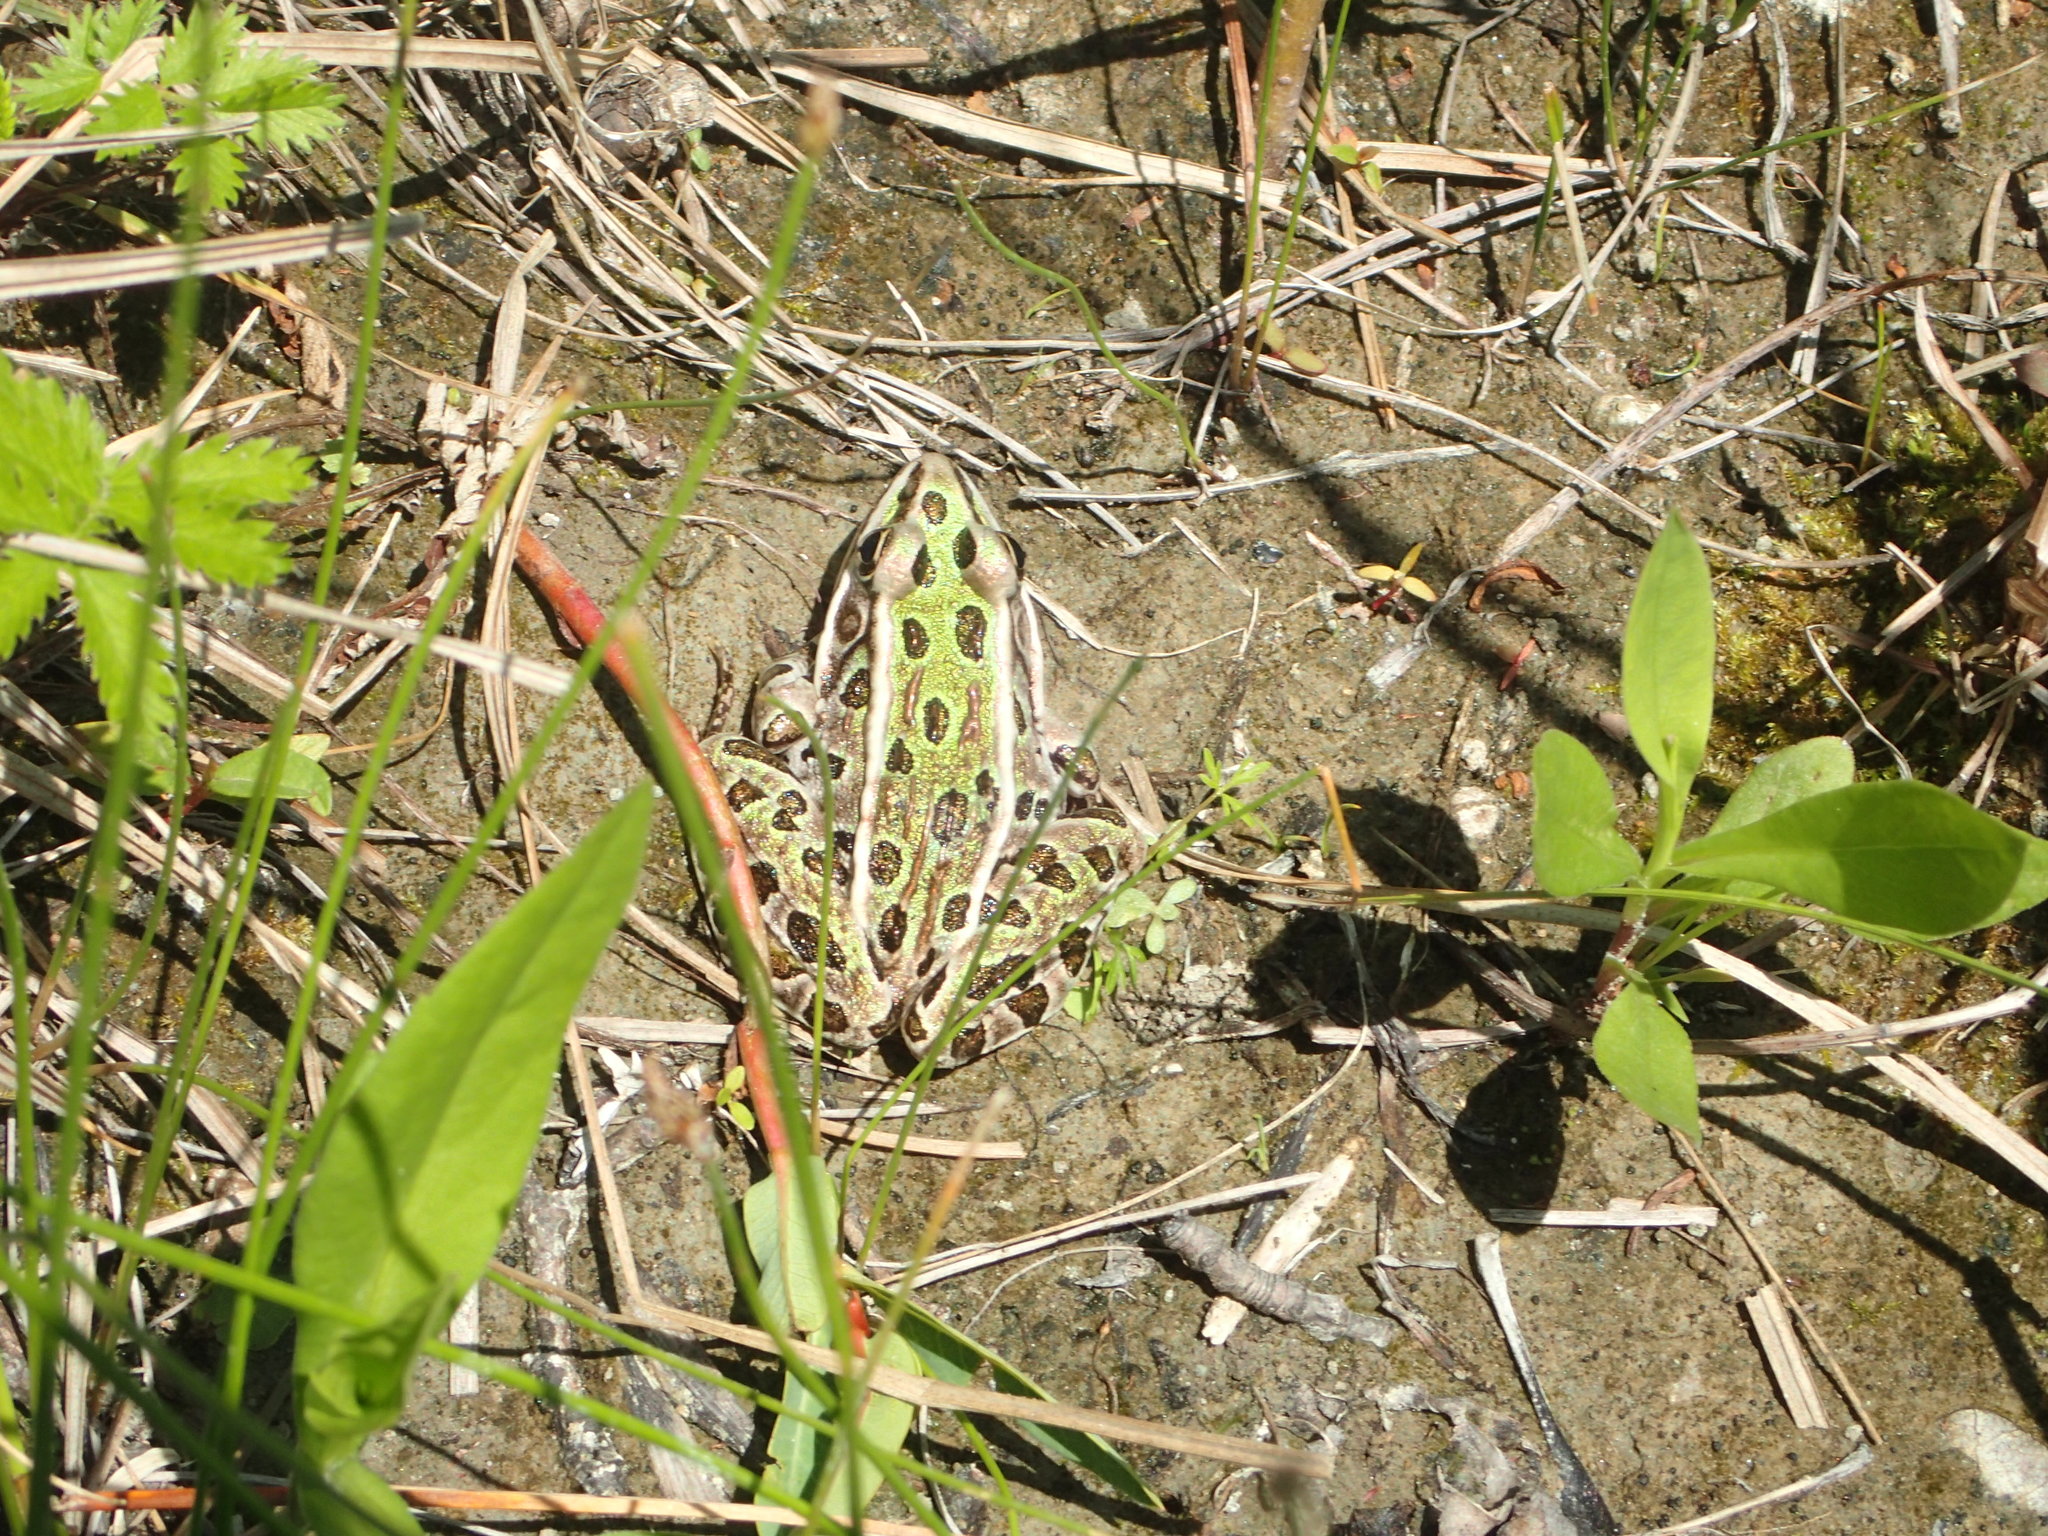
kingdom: Animalia
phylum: Chordata
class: Amphibia
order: Anura
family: Ranidae
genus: Lithobates
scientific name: Lithobates pipiens
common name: Northern leopard frog
